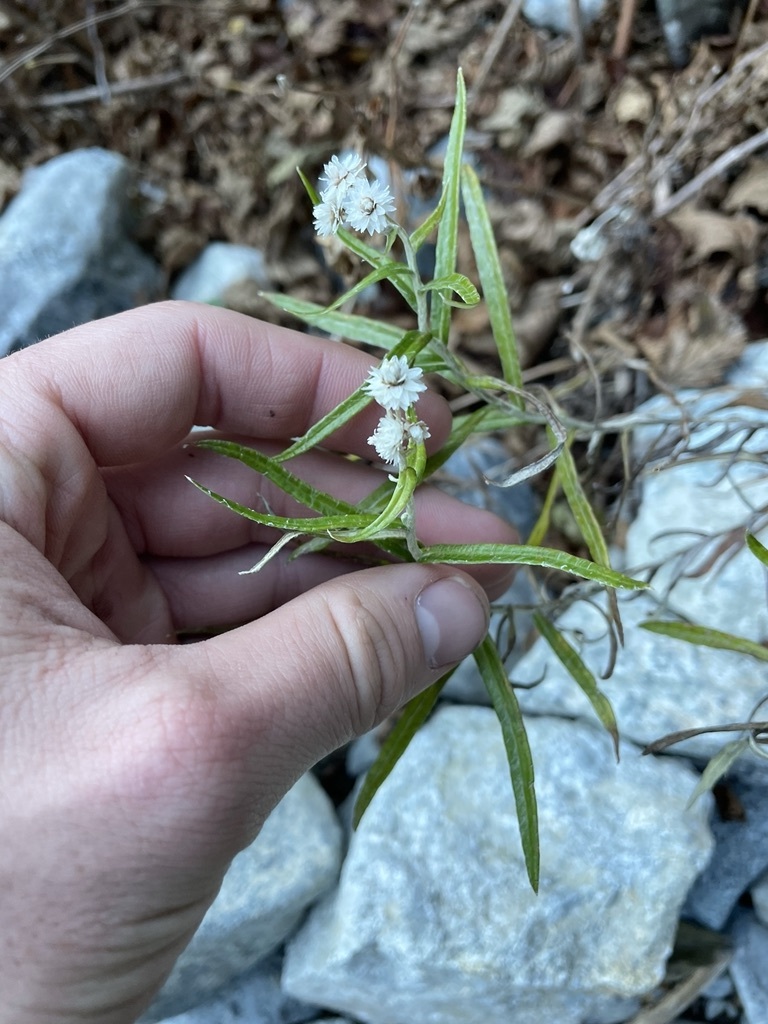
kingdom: Plantae
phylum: Tracheophyta
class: Magnoliopsida
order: Asterales
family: Asteraceae
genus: Anaphalis
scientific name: Anaphalis margaritacea
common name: Pearly everlasting
